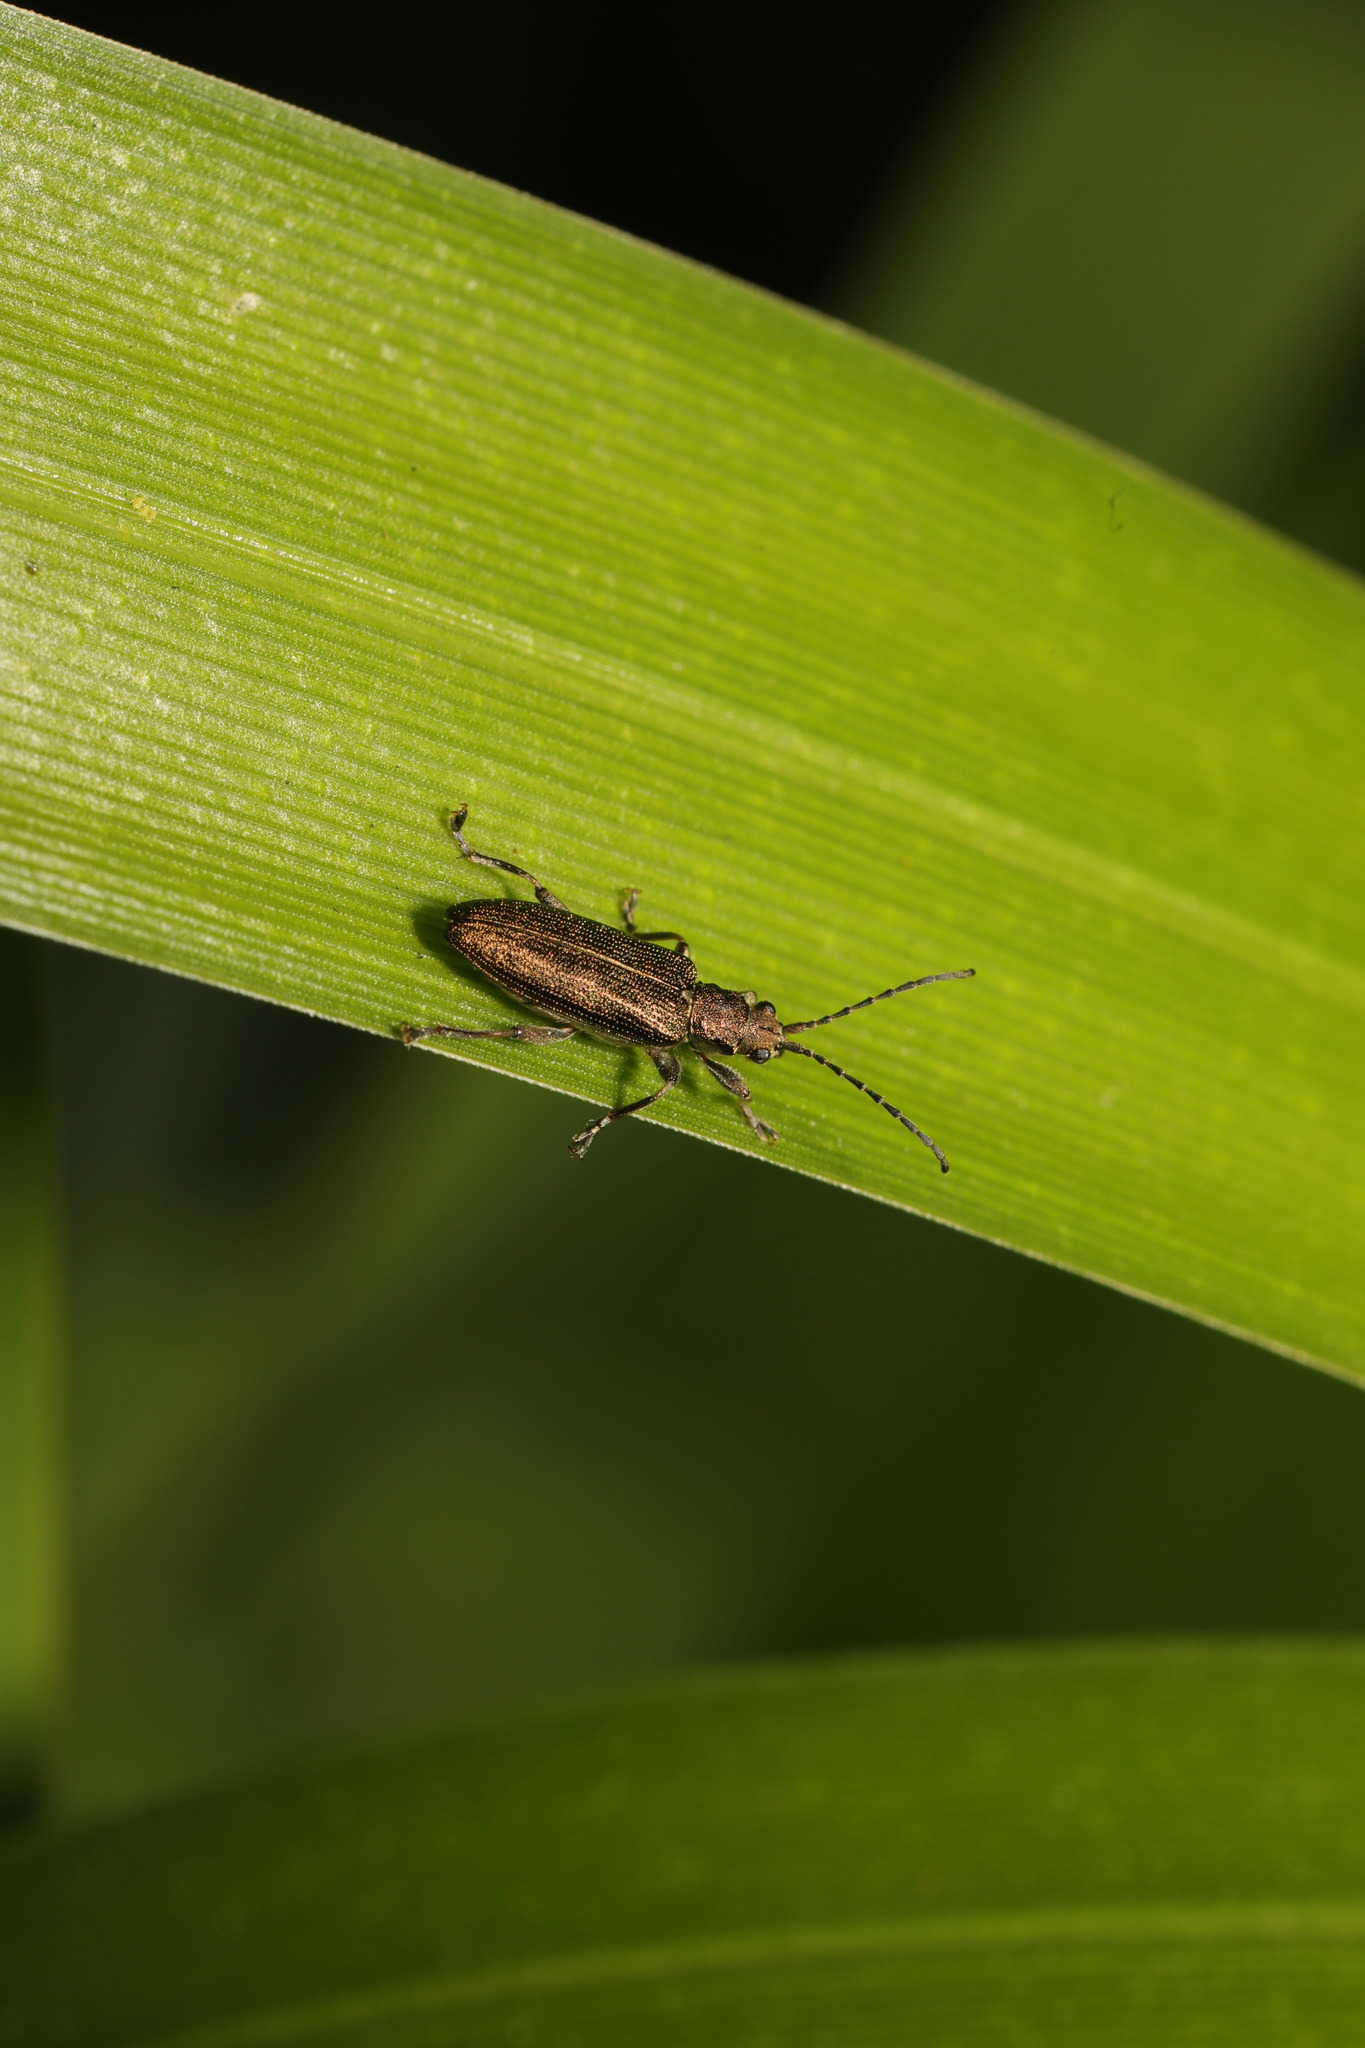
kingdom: Animalia
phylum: Arthropoda
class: Insecta
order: Coleoptera
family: Chrysomelidae
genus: Donacia
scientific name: Donacia simplex
